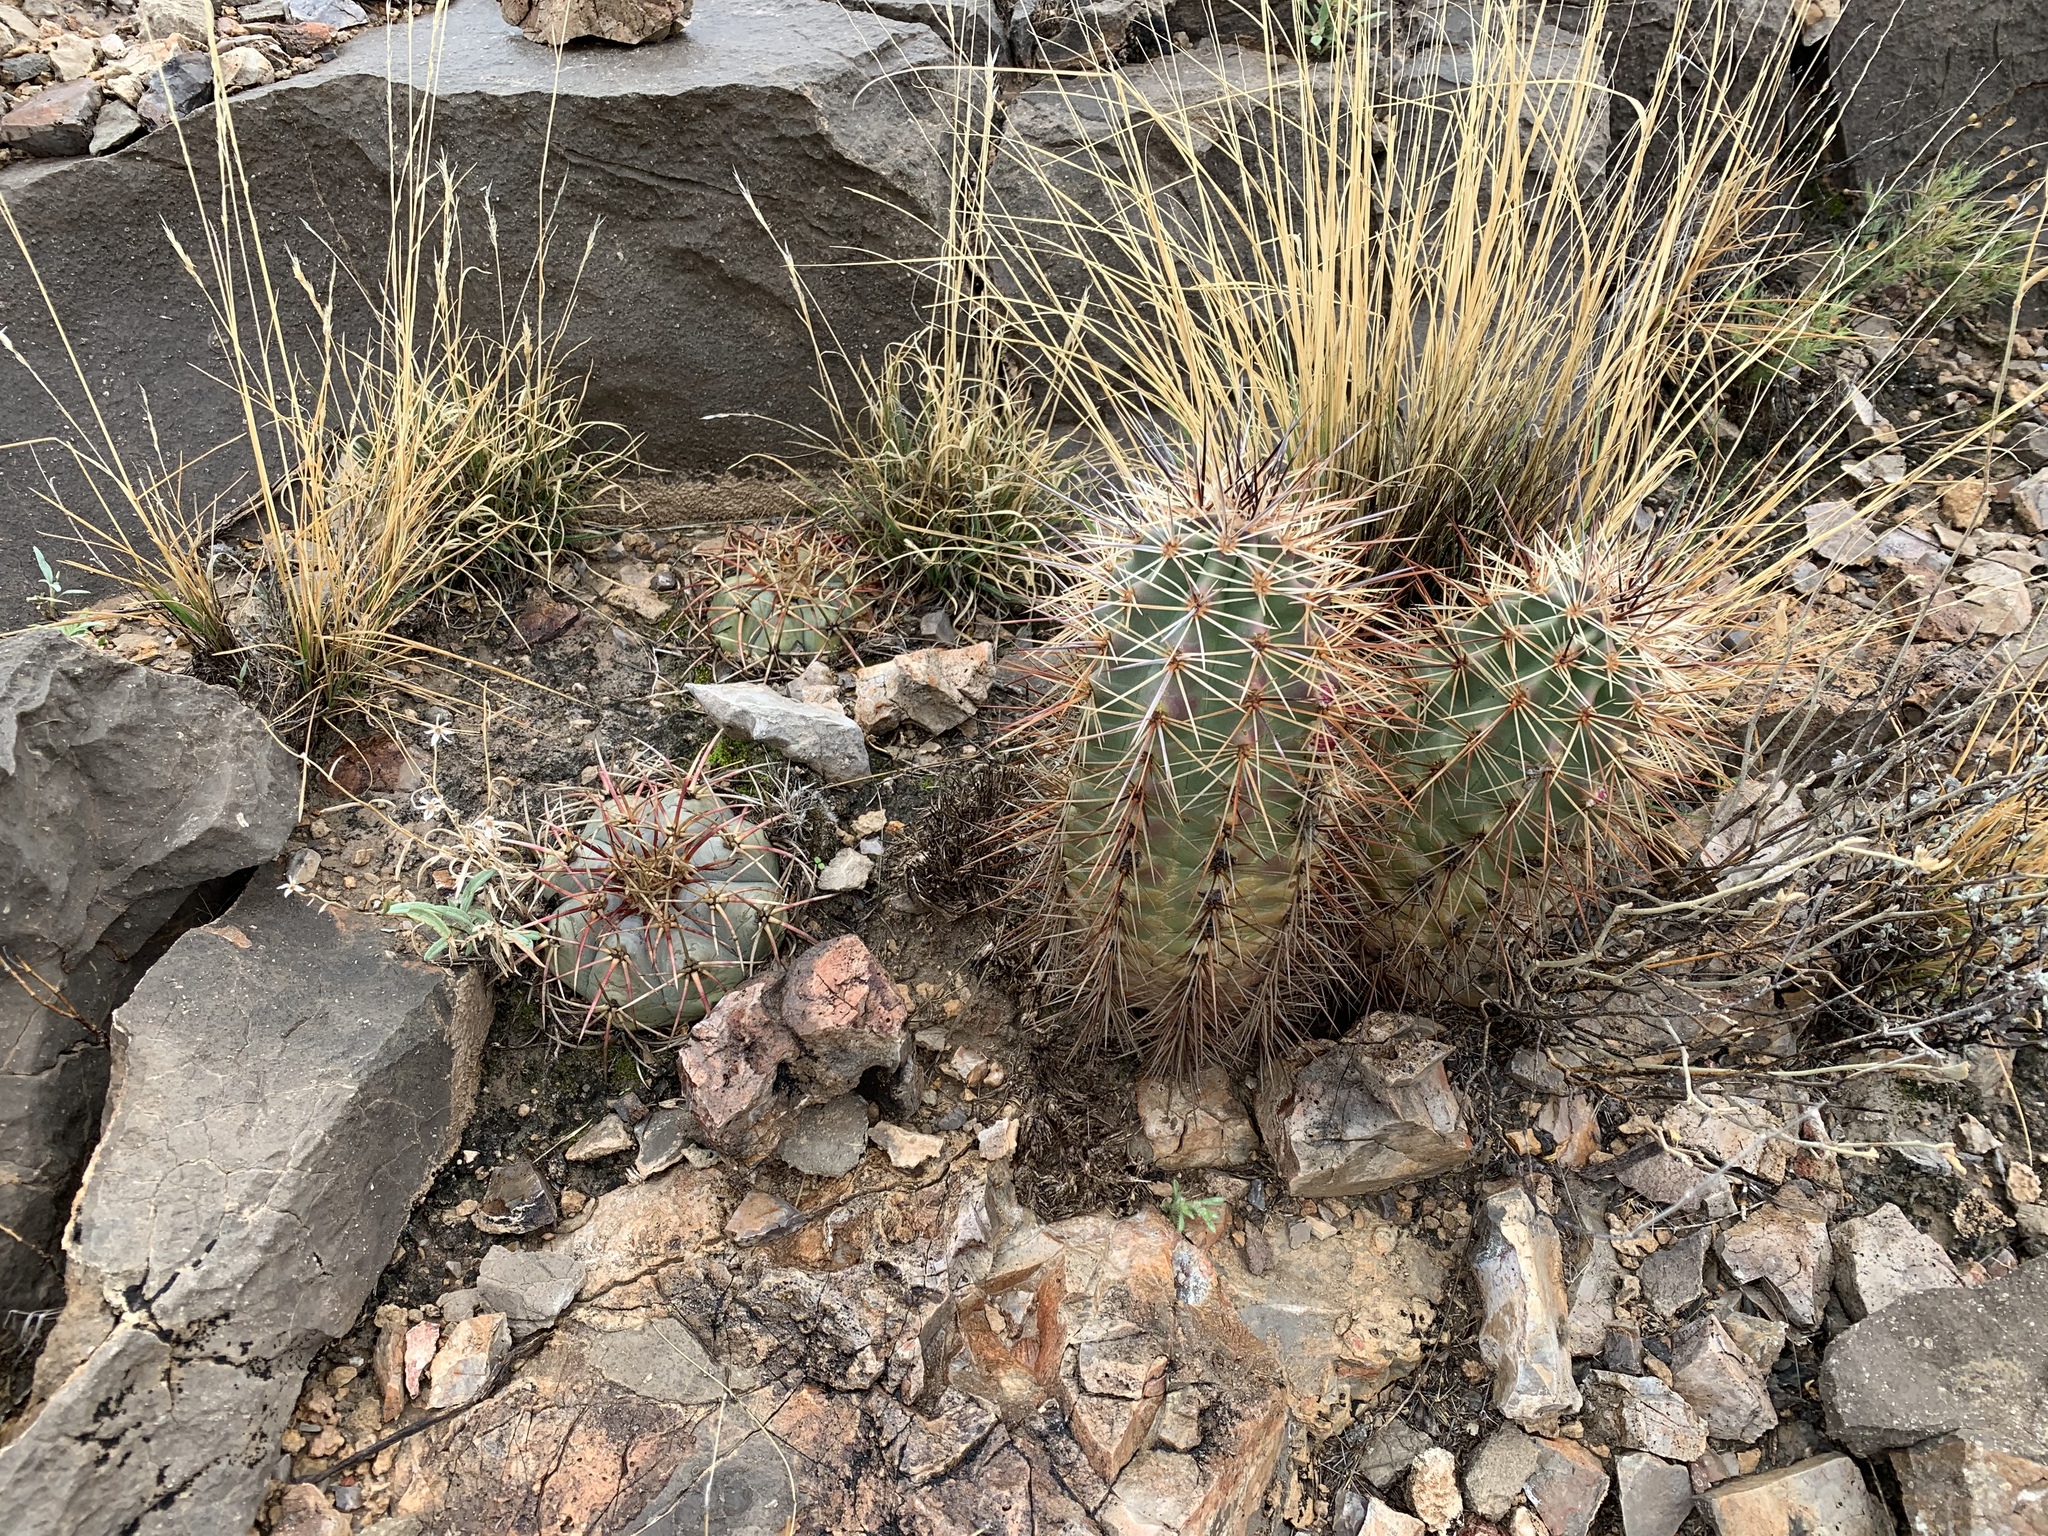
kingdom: Plantae
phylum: Tracheophyta
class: Magnoliopsida
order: Caryophyllales
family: Cactaceae
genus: Echinocereus
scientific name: Echinocereus coccineus
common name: Scarlet hedgehog cactus
